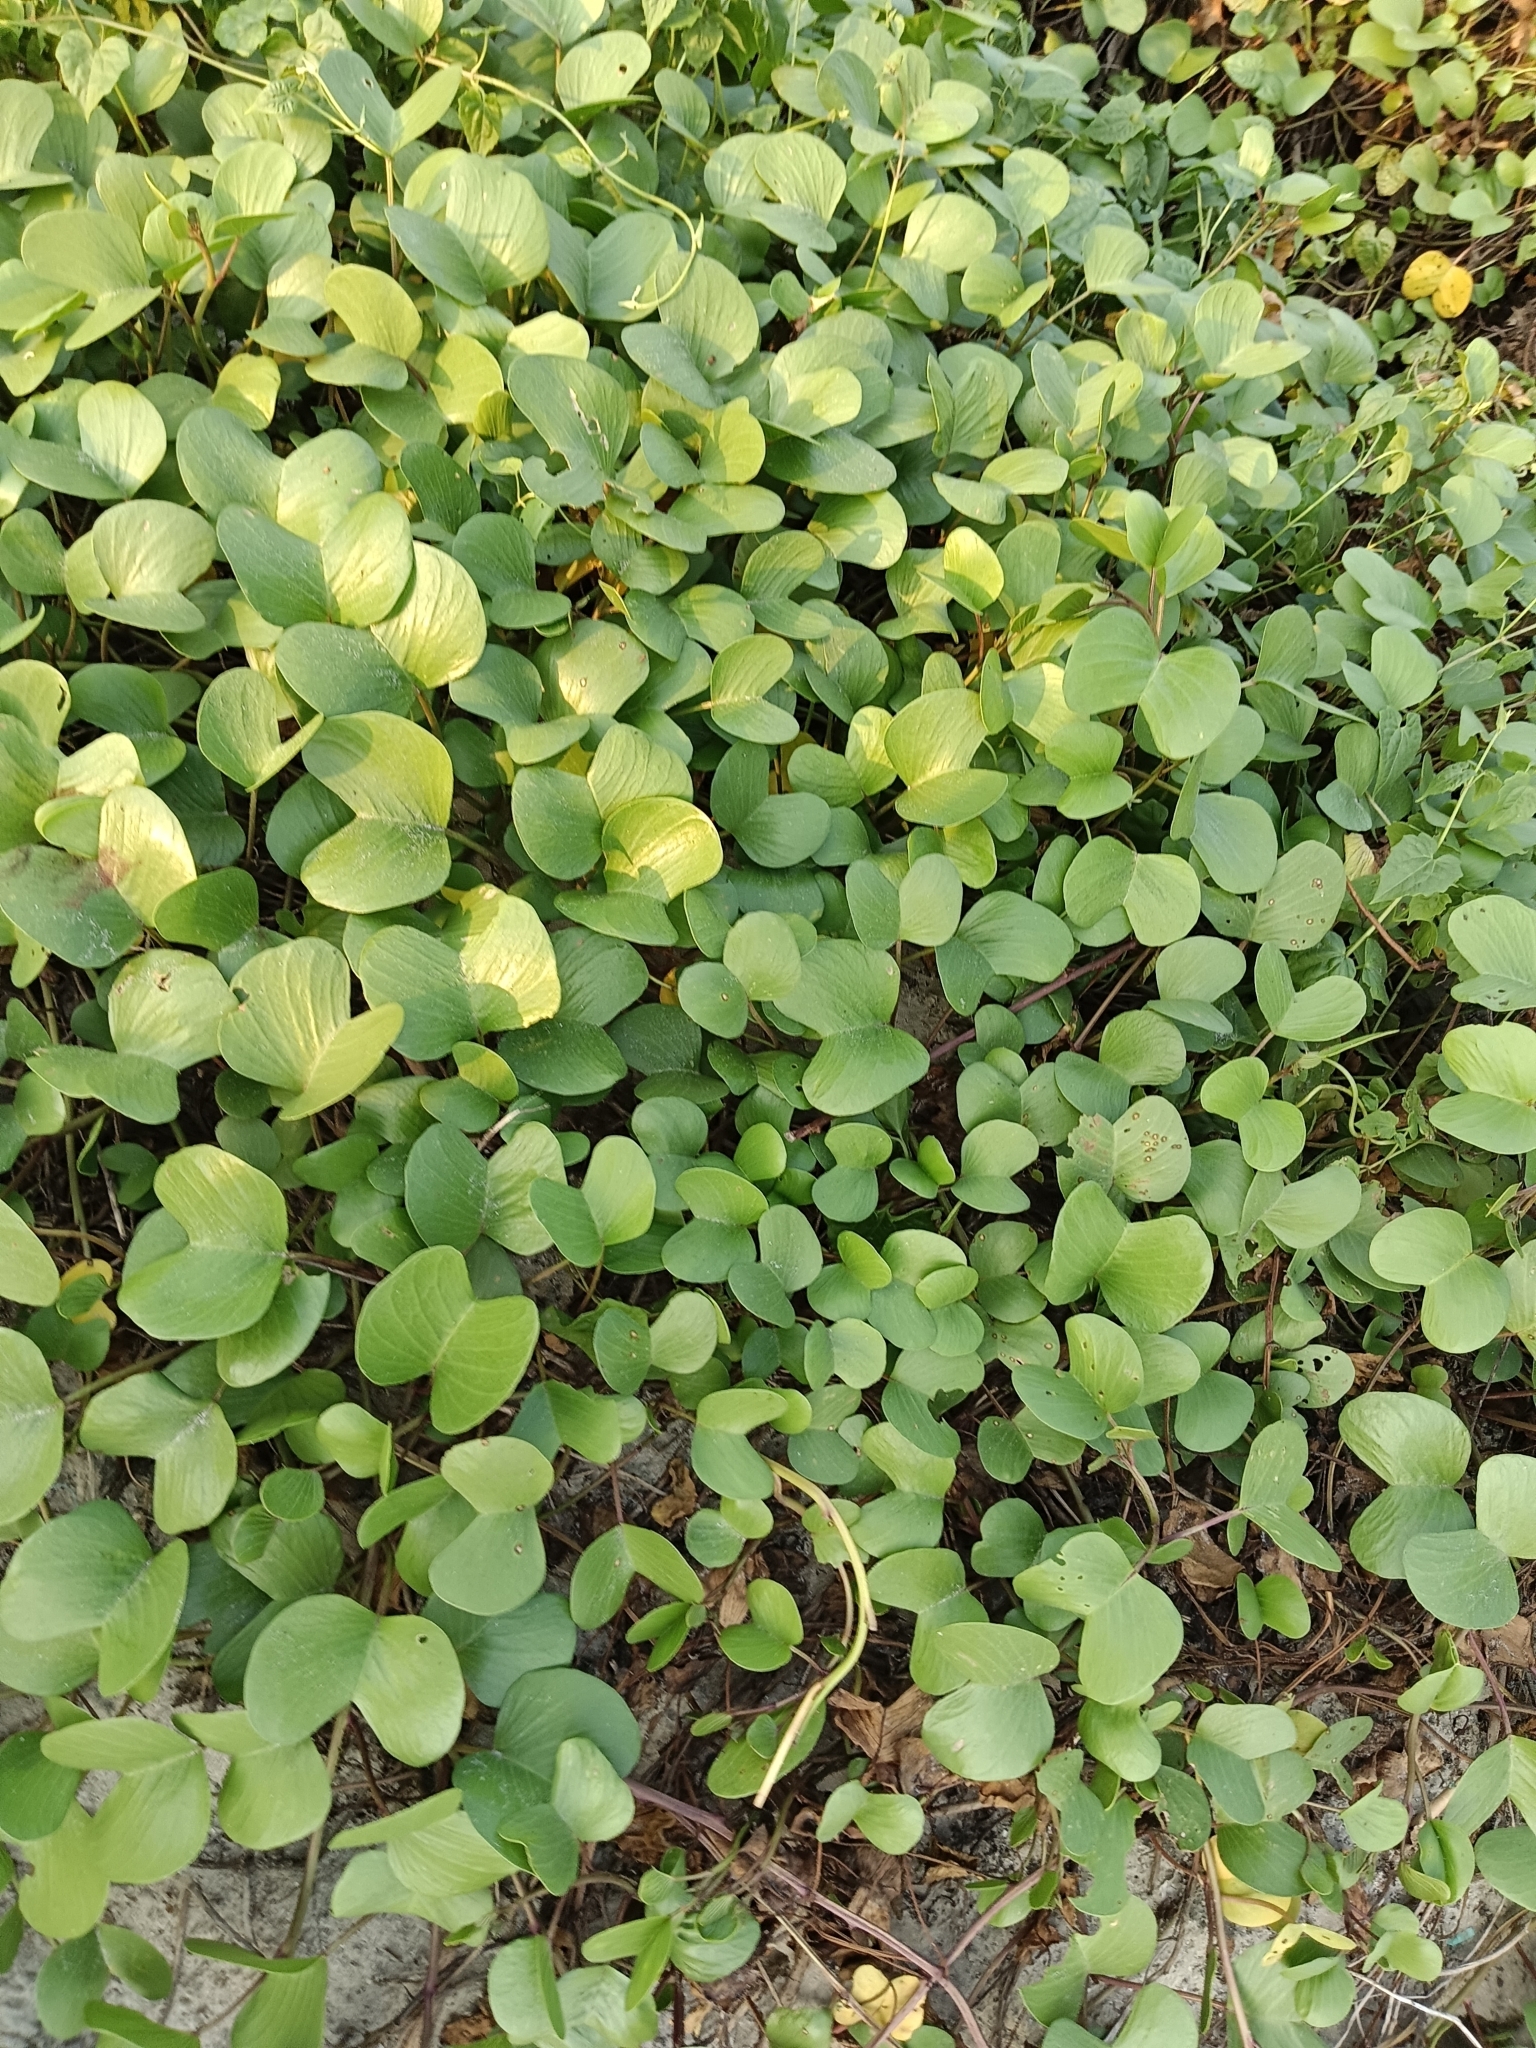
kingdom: Plantae
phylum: Tracheophyta
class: Magnoliopsida
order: Solanales
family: Convolvulaceae
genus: Ipomoea
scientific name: Ipomoea pes-caprae
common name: Beach morning glory
